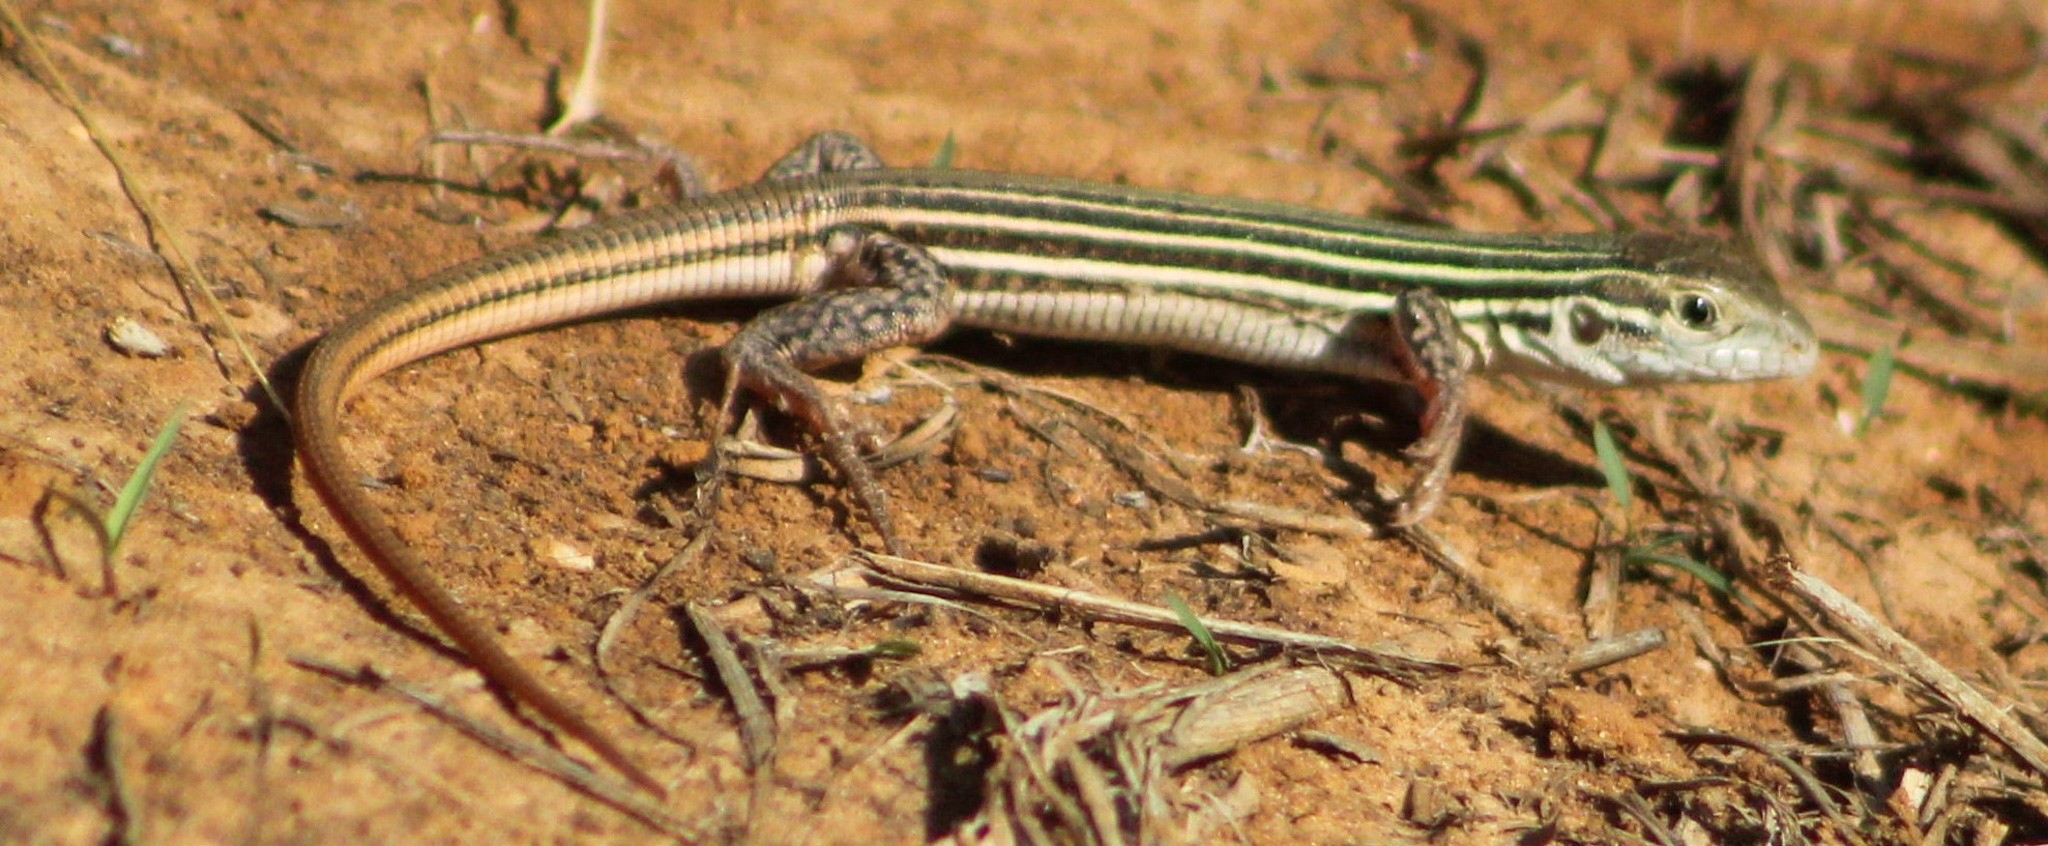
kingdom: Animalia
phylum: Chordata
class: Squamata
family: Teiidae
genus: Aspidoscelis
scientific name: Aspidoscelis gularis
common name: Eastern spotted whiptail
